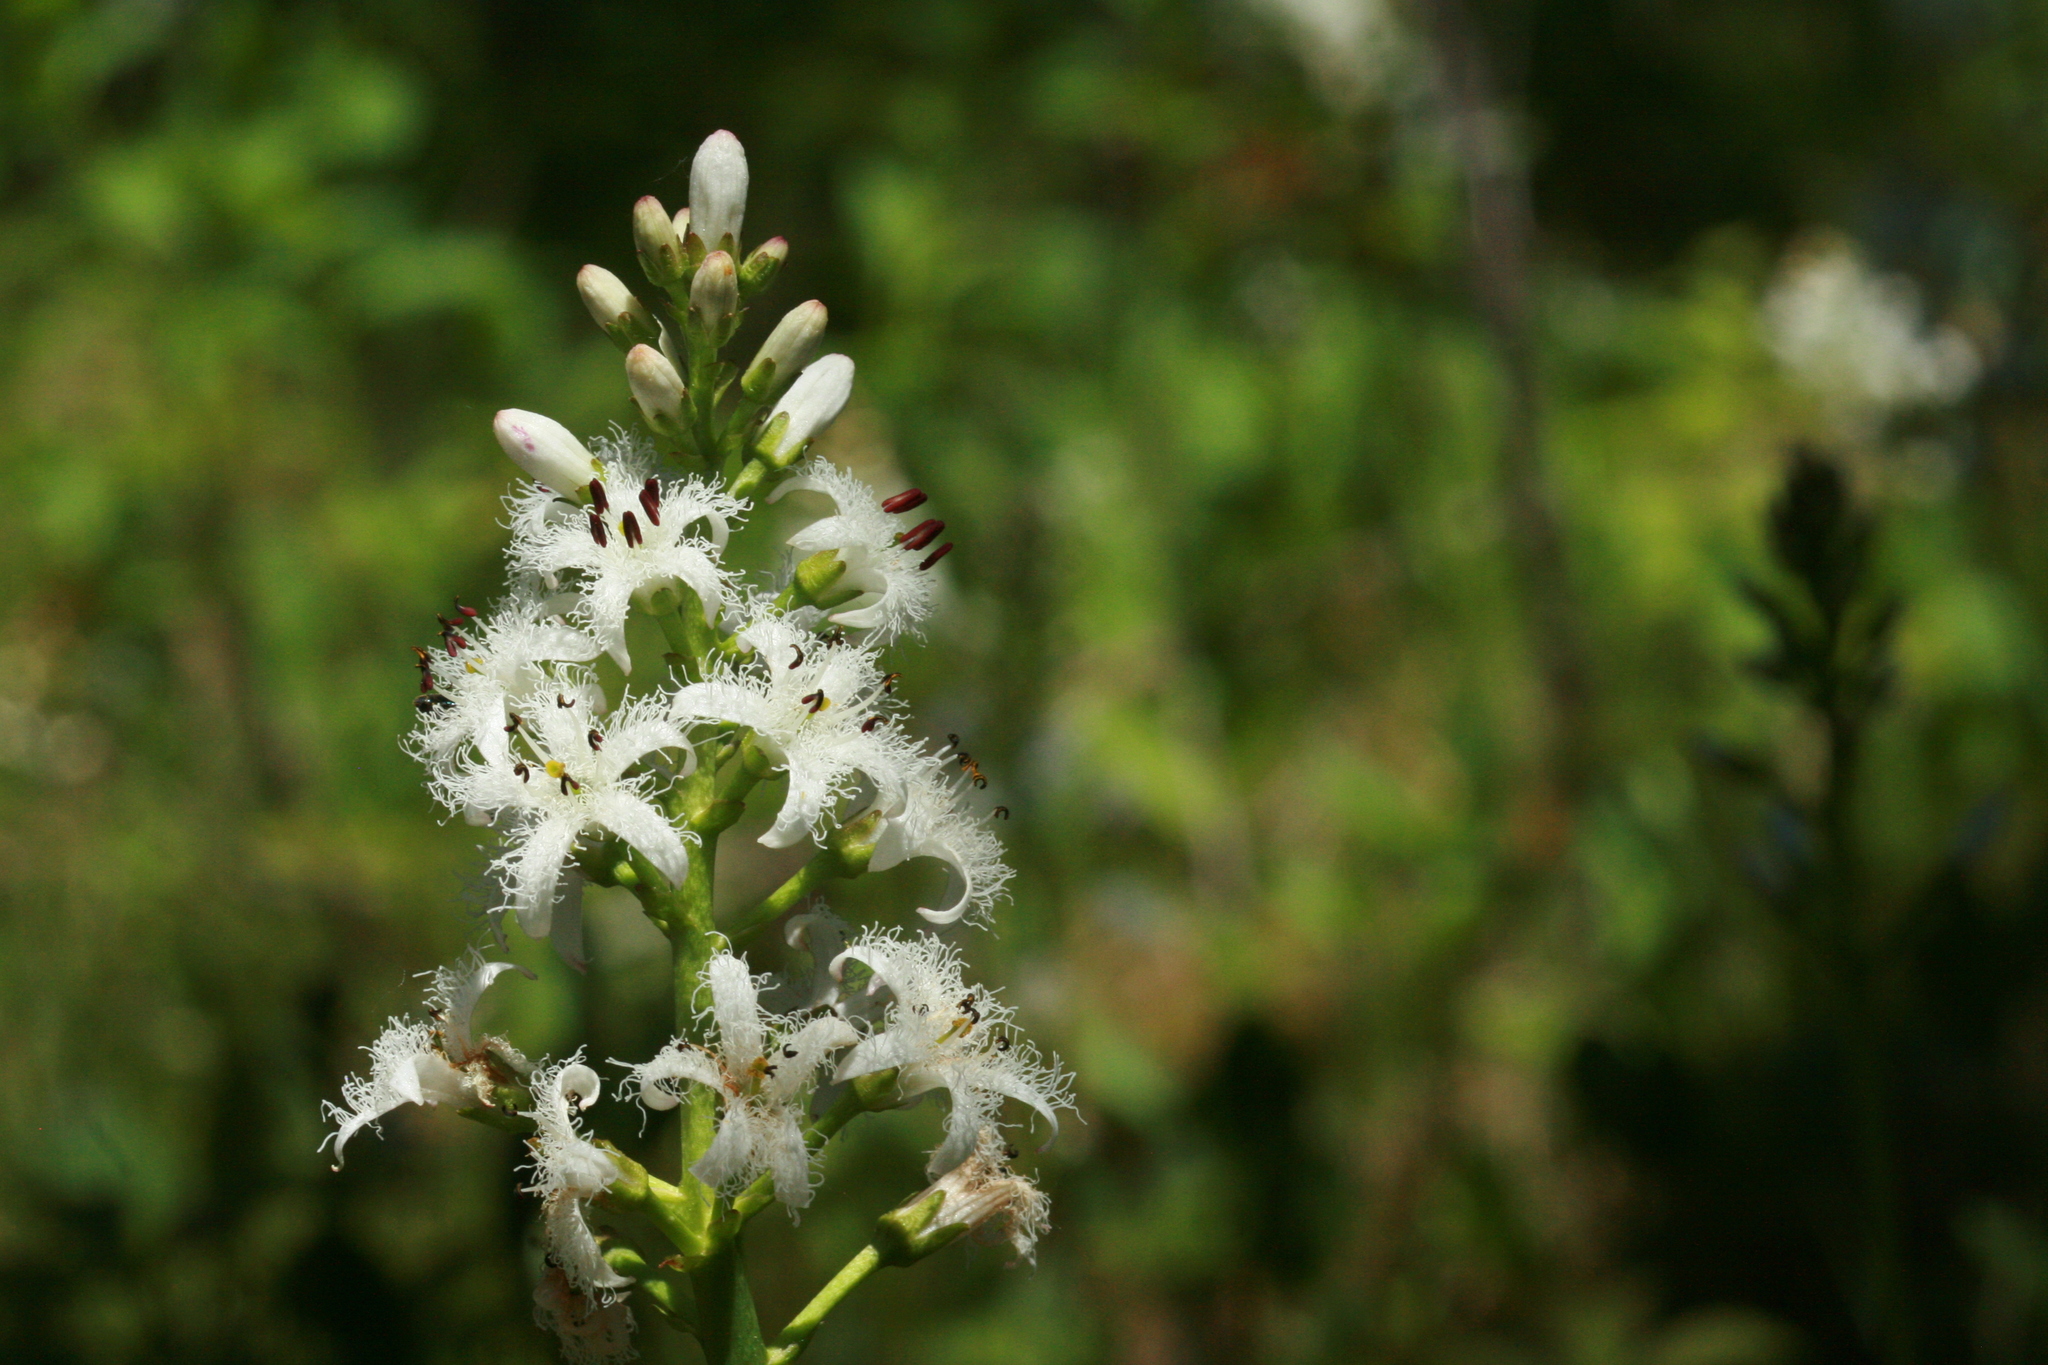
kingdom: Plantae
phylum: Tracheophyta
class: Magnoliopsida
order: Asterales
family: Menyanthaceae
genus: Menyanthes
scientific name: Menyanthes trifoliata
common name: Bogbean
